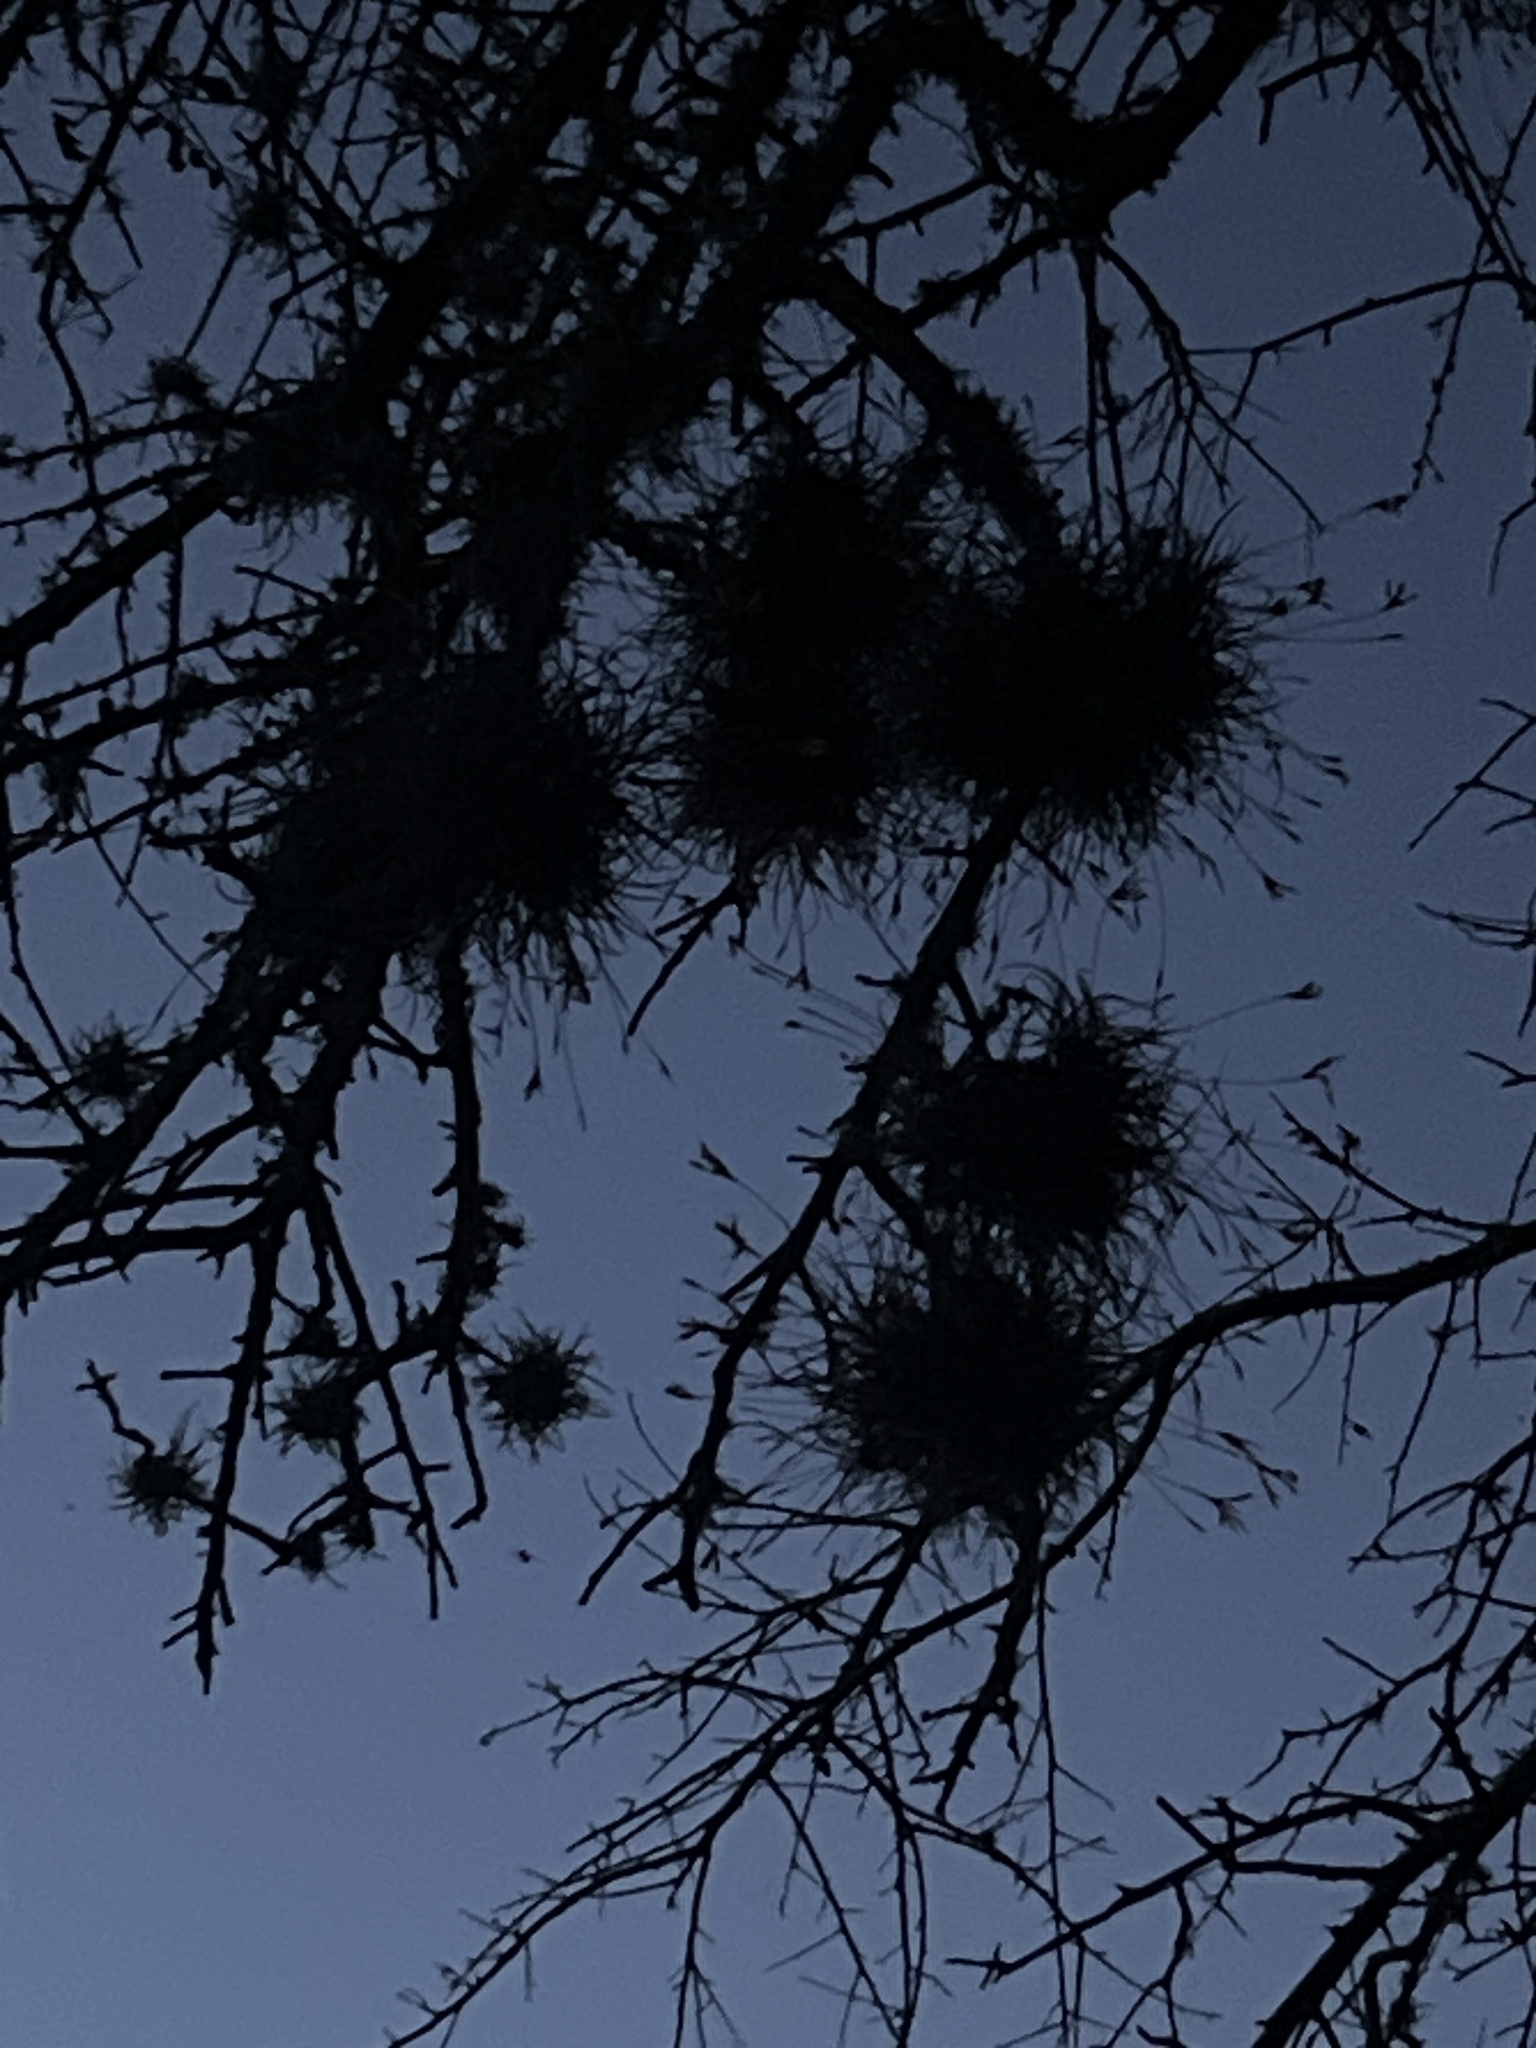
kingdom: Plantae
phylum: Tracheophyta
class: Liliopsida
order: Poales
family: Bromeliaceae
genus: Tillandsia
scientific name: Tillandsia recurvata
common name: Small ballmoss
